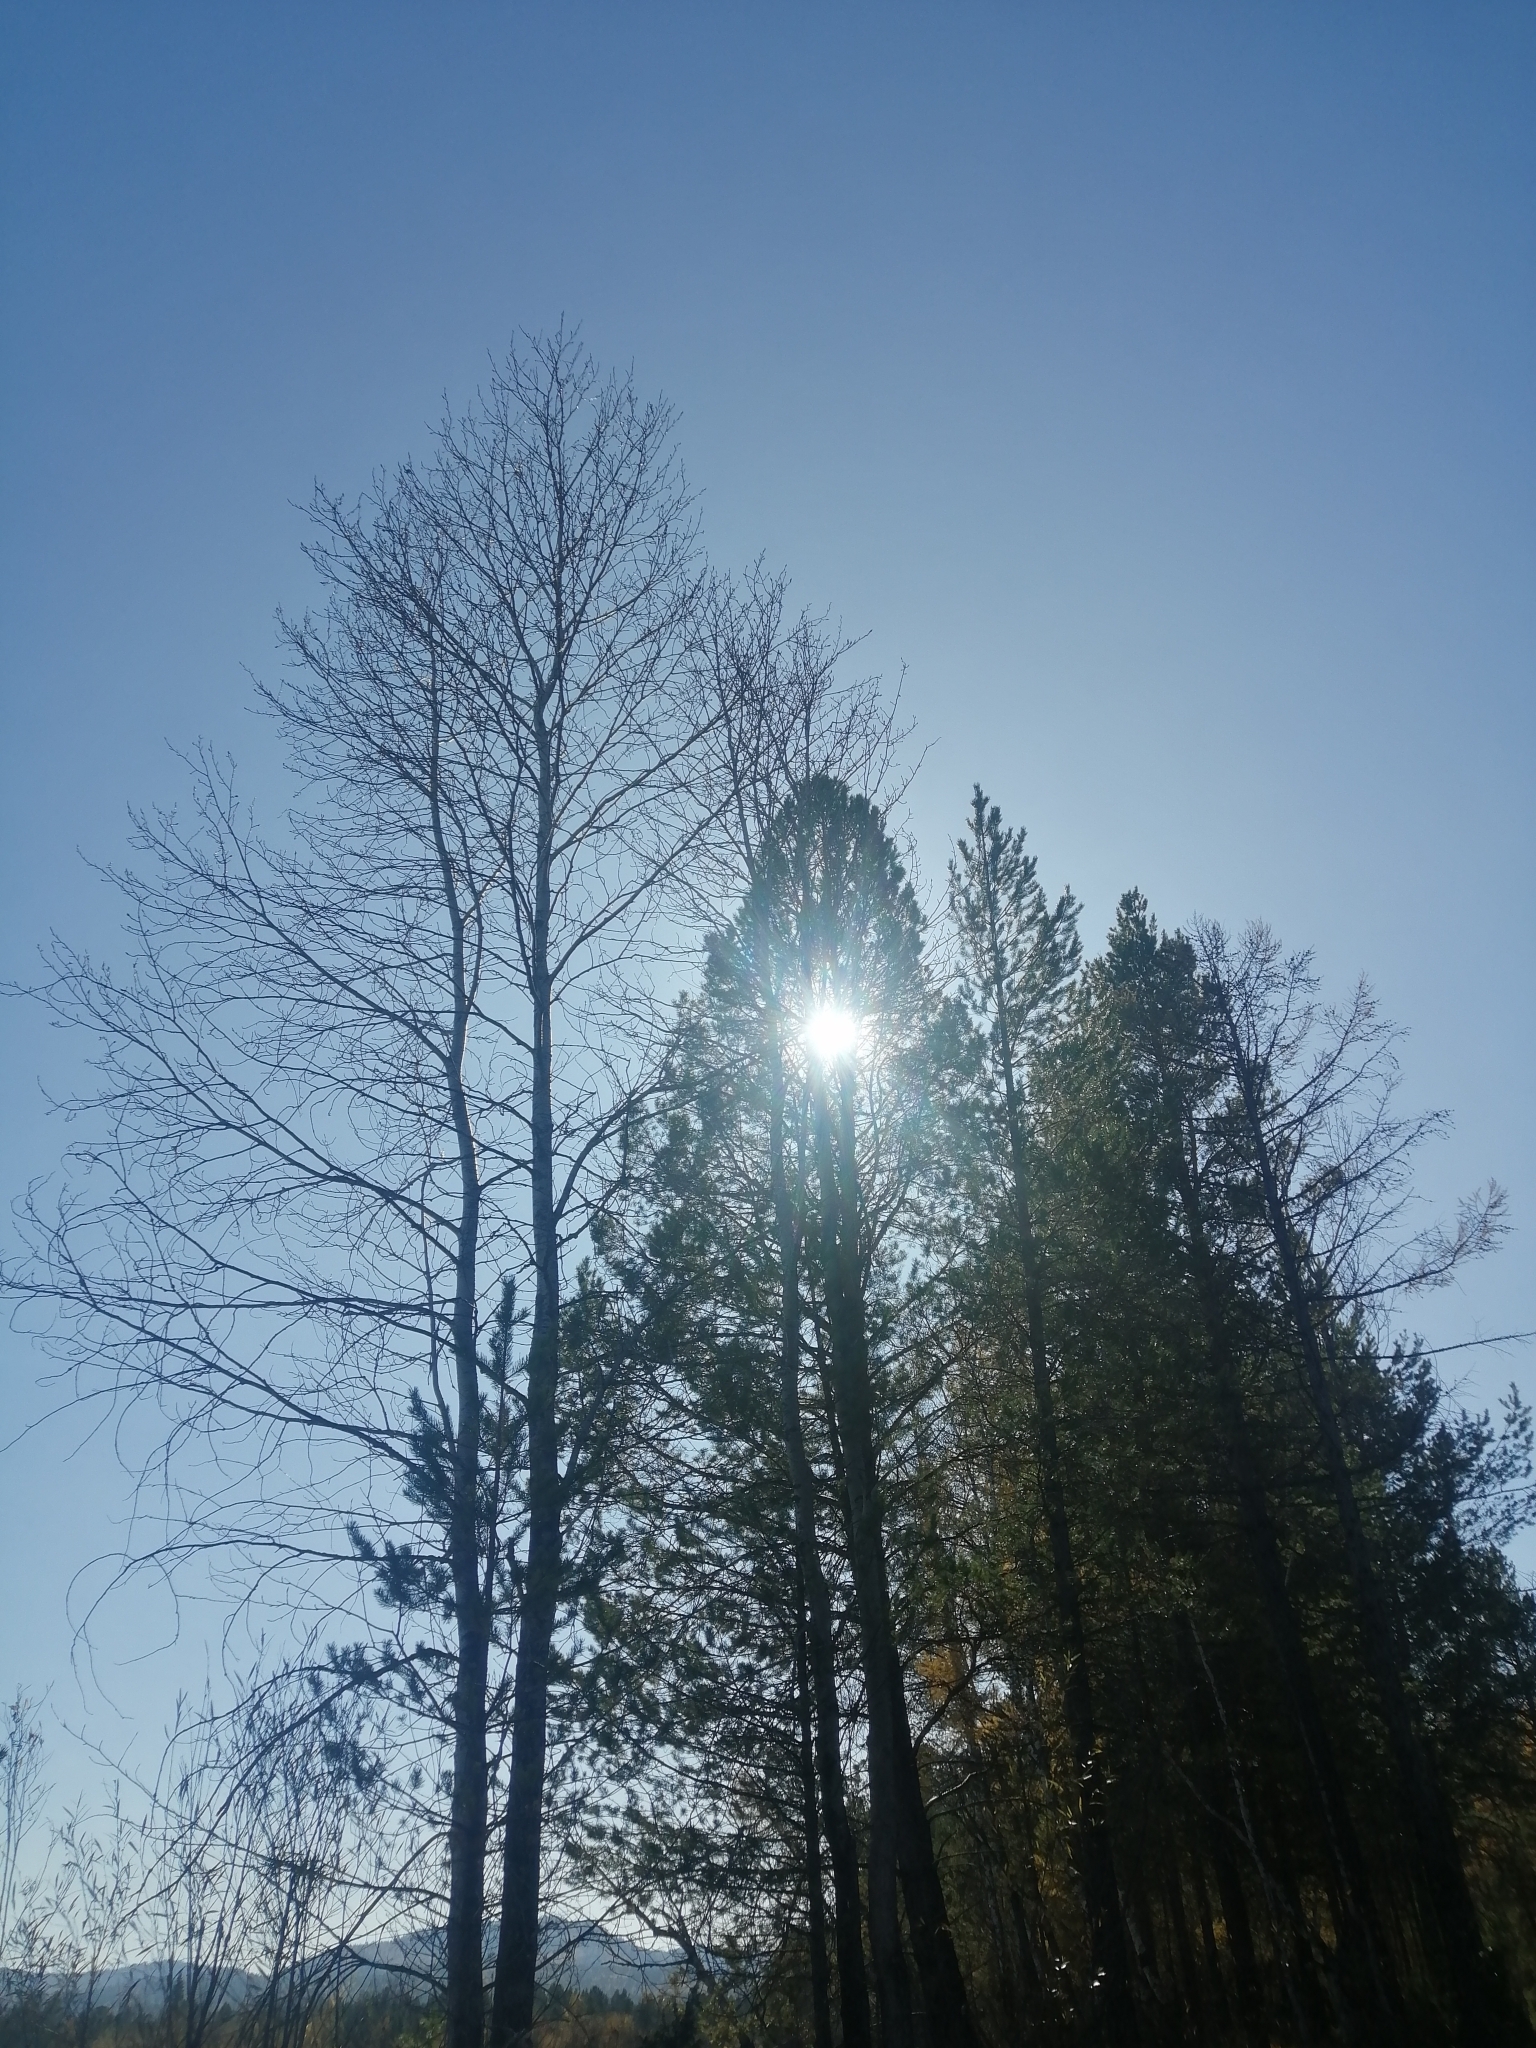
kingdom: Plantae
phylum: Tracheophyta
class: Pinopsida
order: Pinales
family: Pinaceae
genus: Pinus
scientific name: Pinus sylvestris
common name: Scots pine
